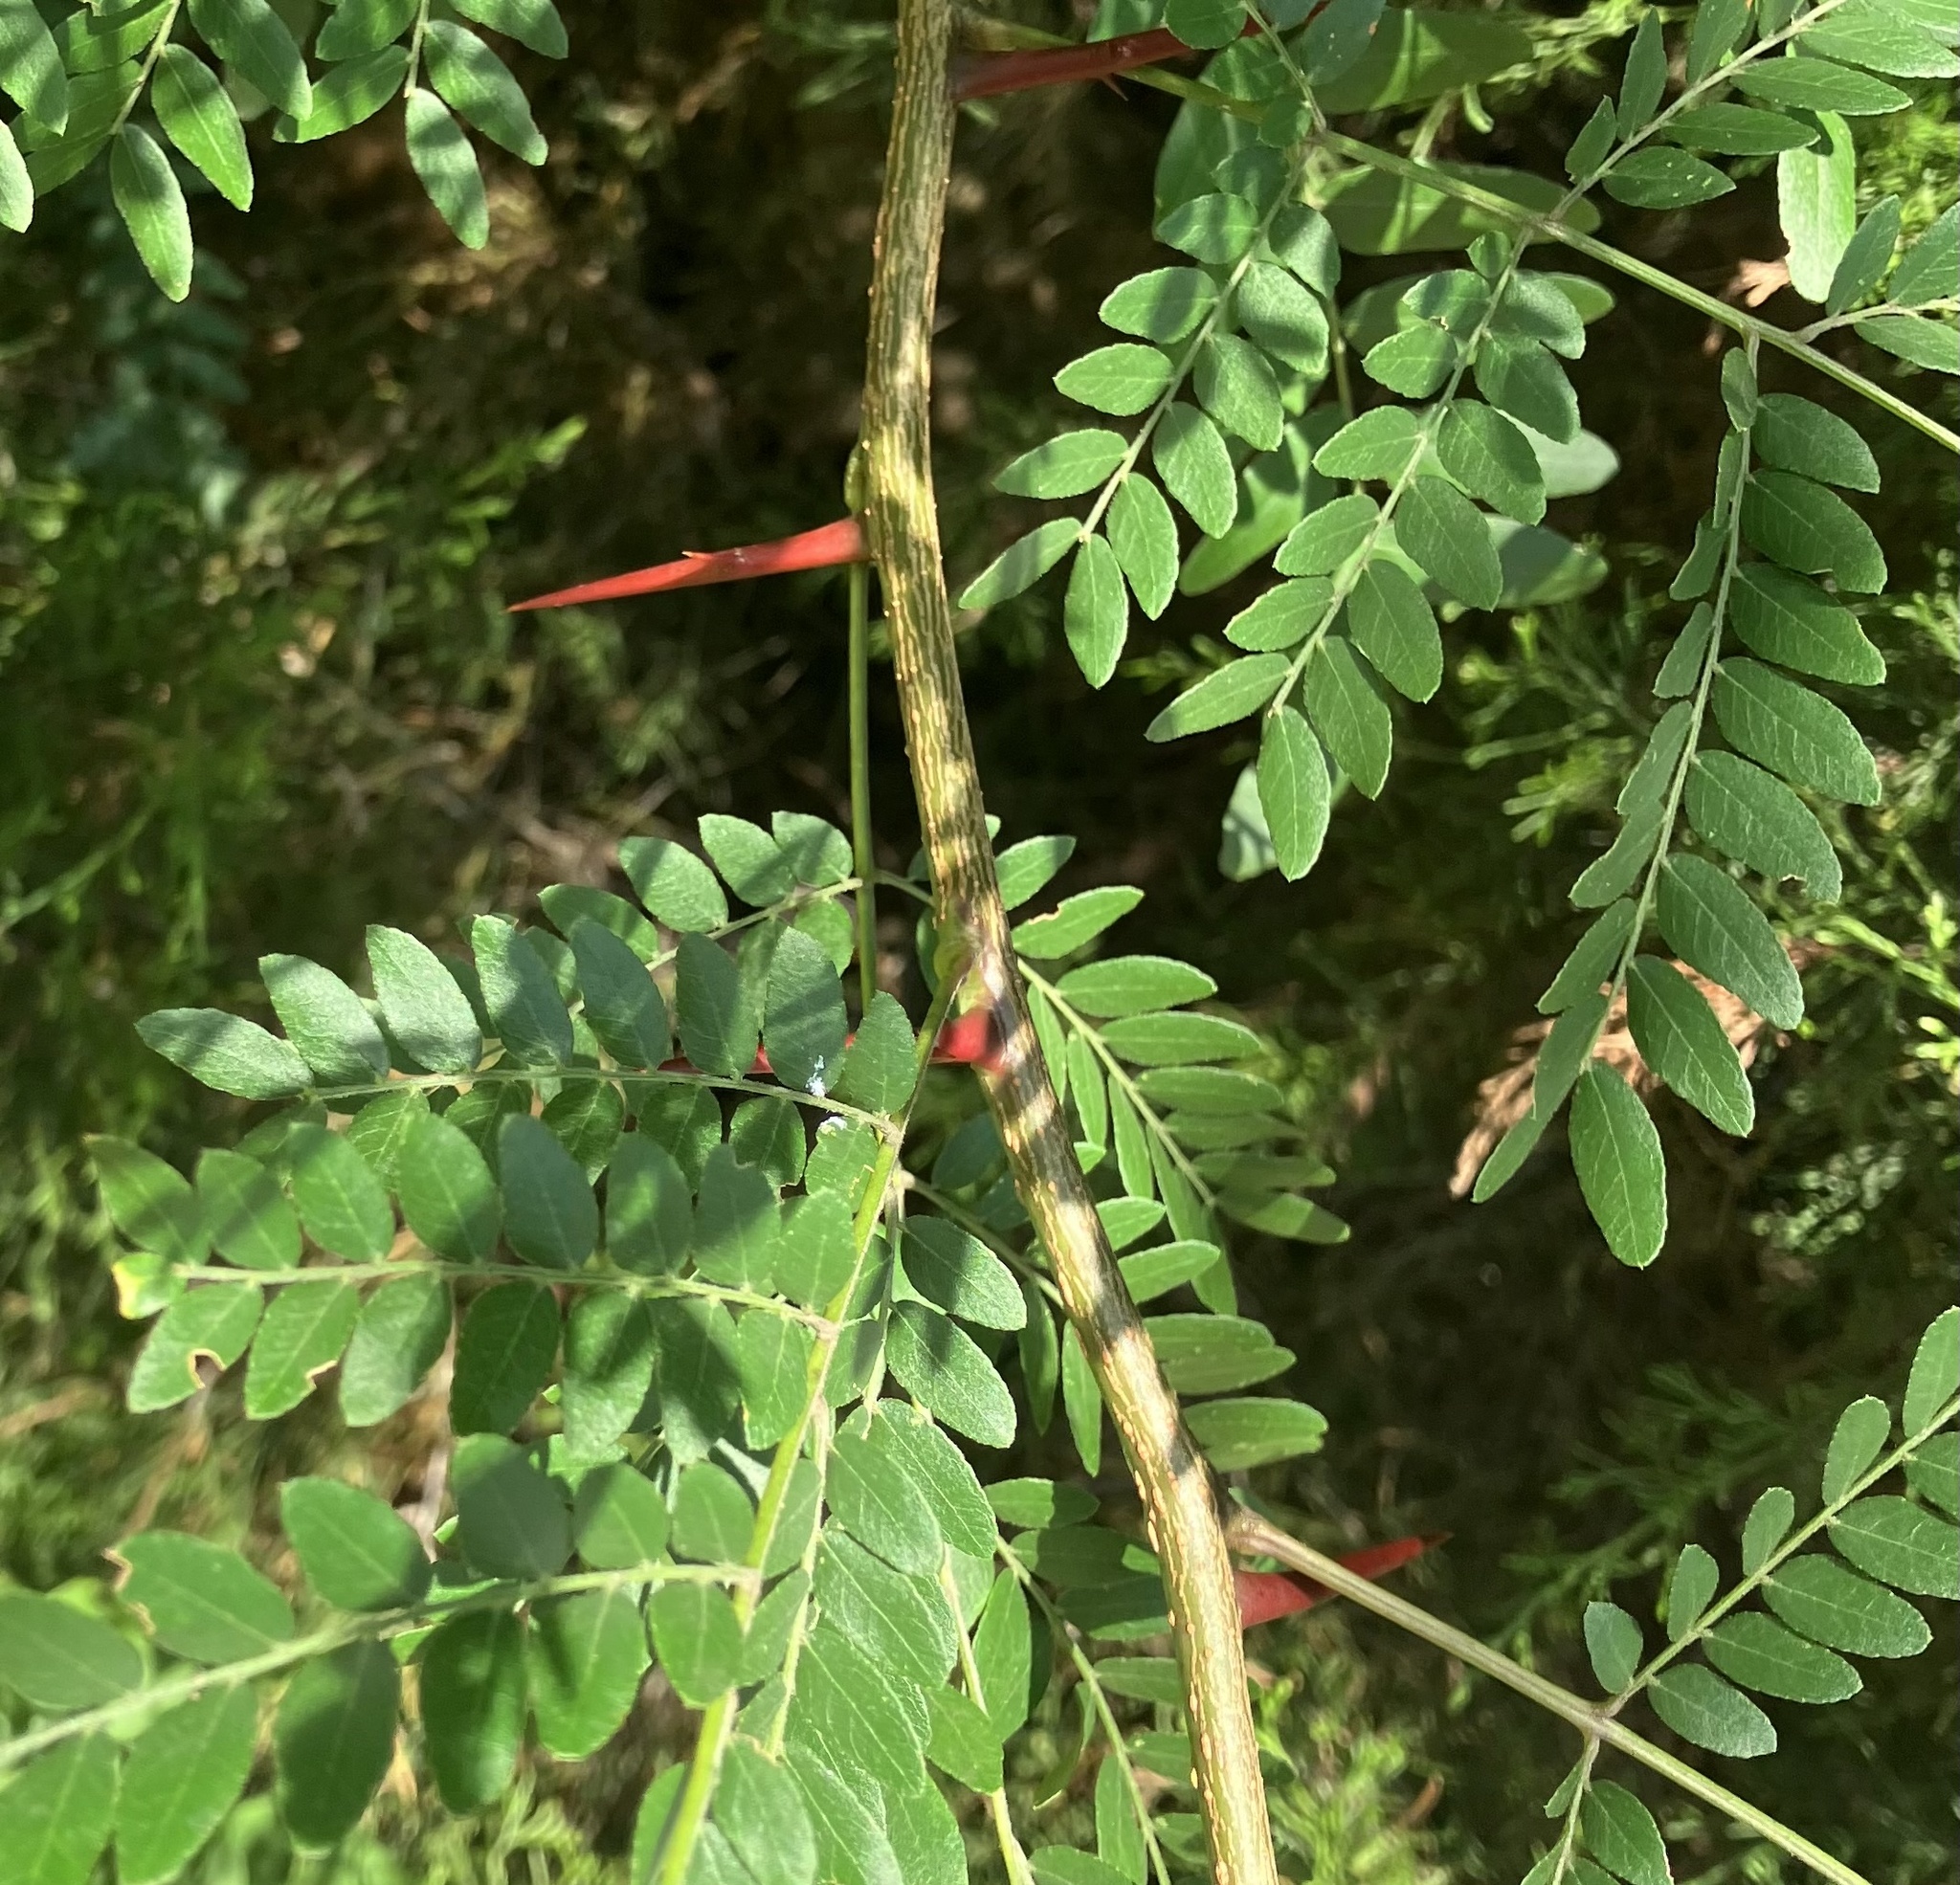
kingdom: Plantae
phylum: Tracheophyta
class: Magnoliopsida
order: Fabales
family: Fabaceae
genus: Gleditsia
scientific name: Gleditsia triacanthos
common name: Common honeylocust
